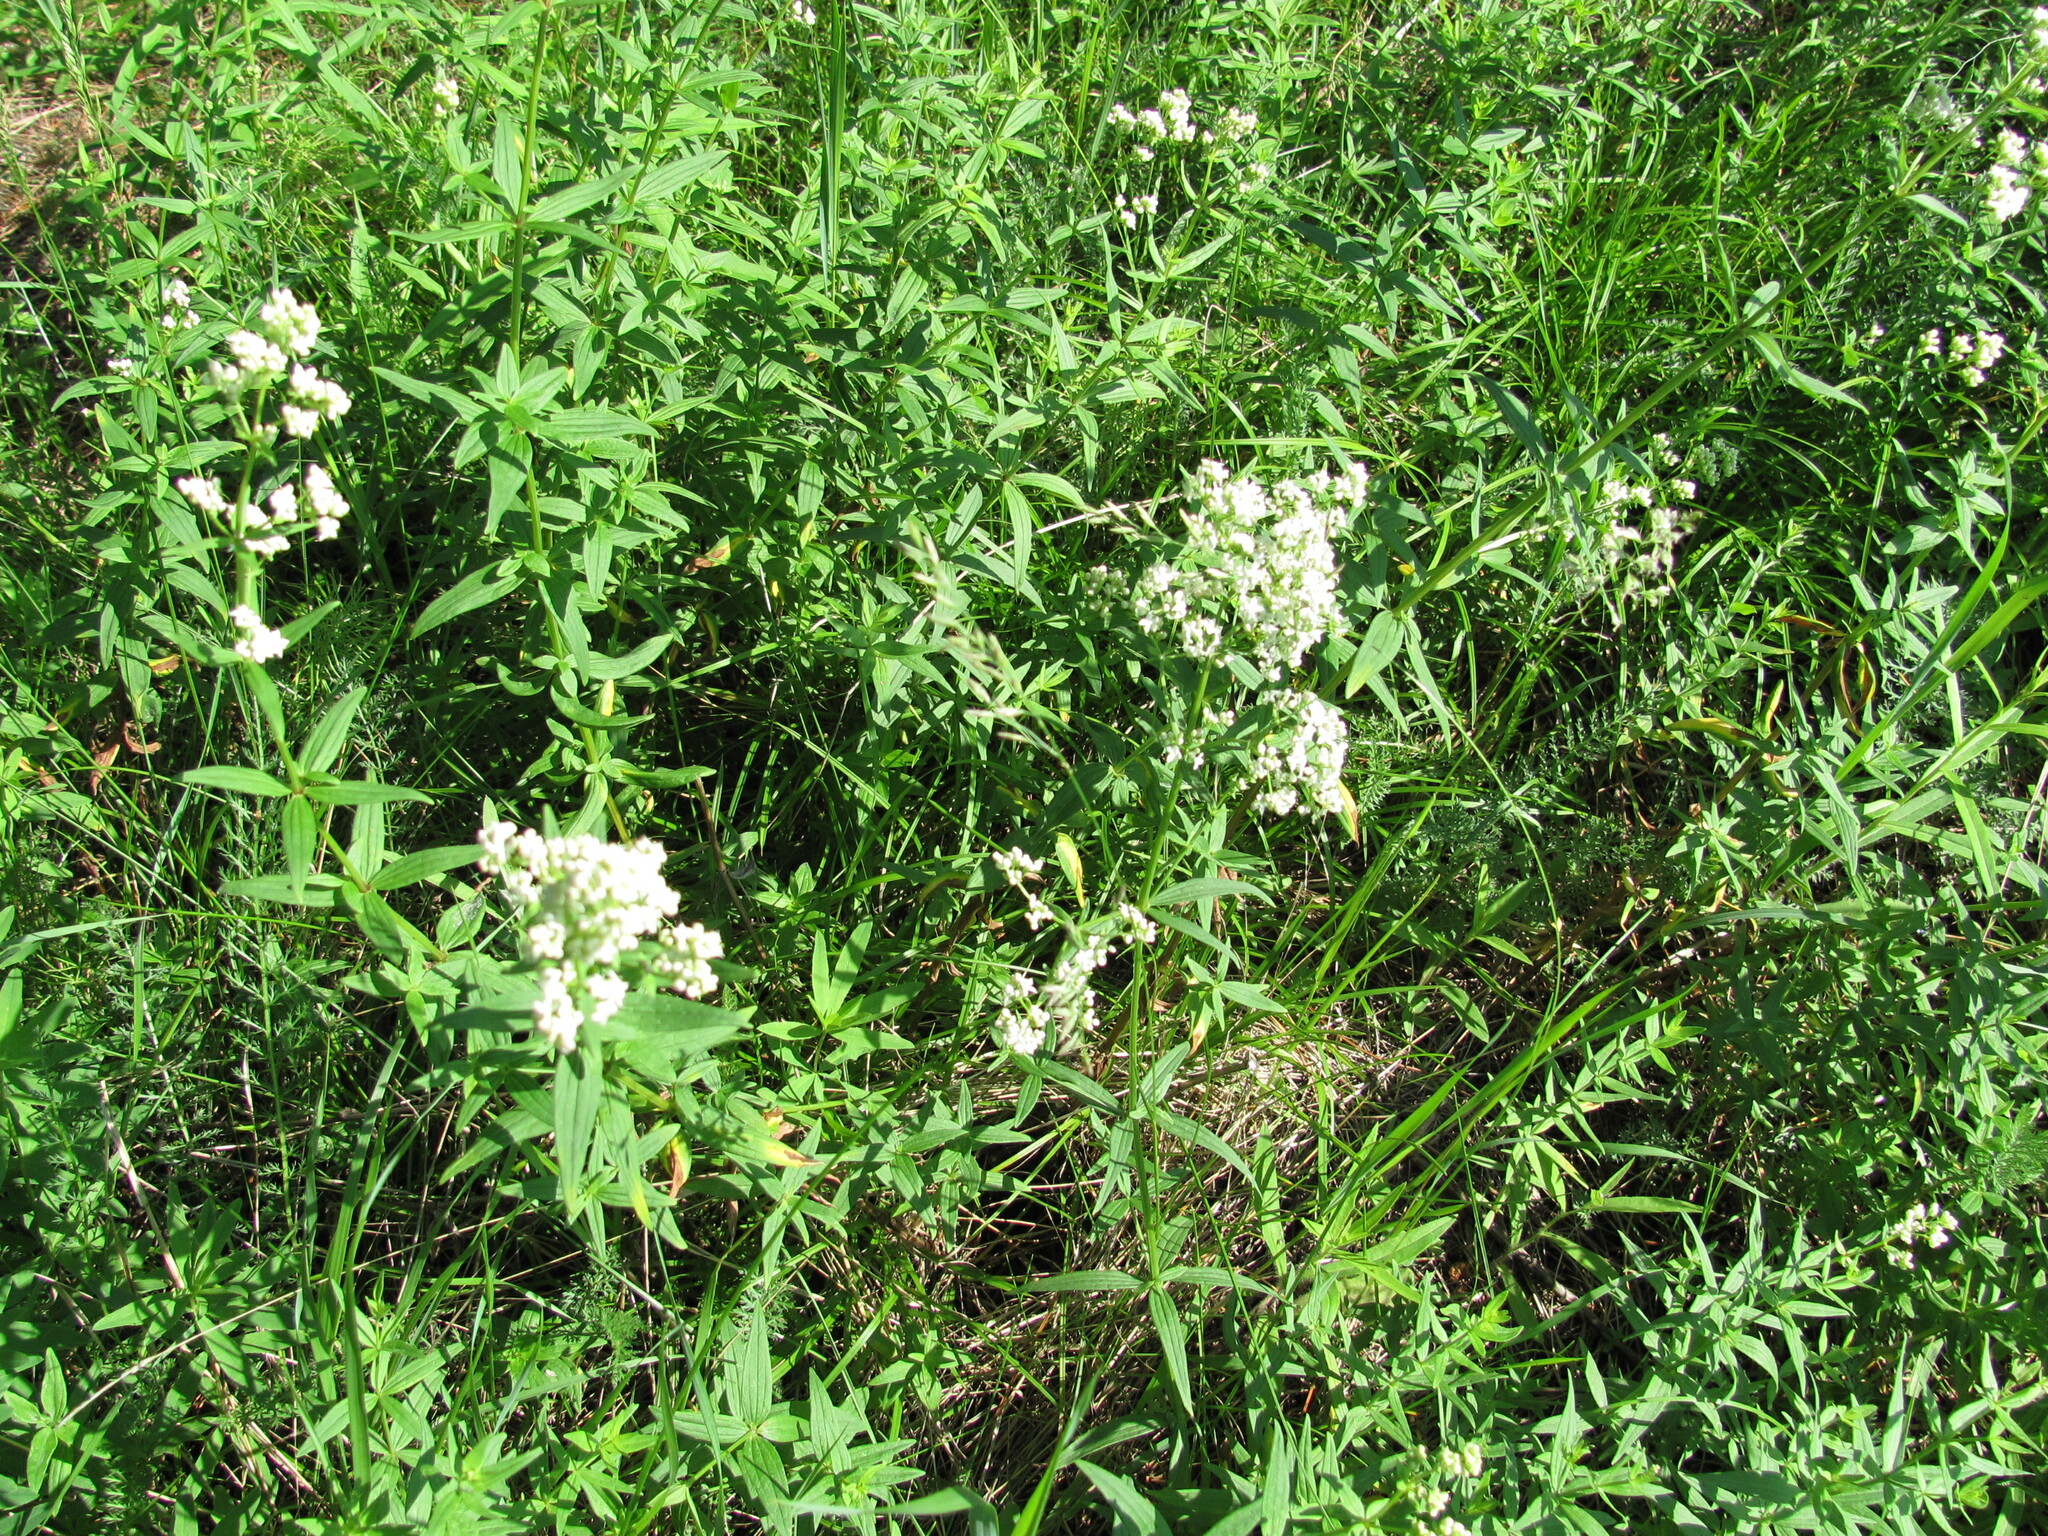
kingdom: Plantae
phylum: Tracheophyta
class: Magnoliopsida
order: Gentianales
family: Rubiaceae
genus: Galium
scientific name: Galium boreale
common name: Northern bedstraw
